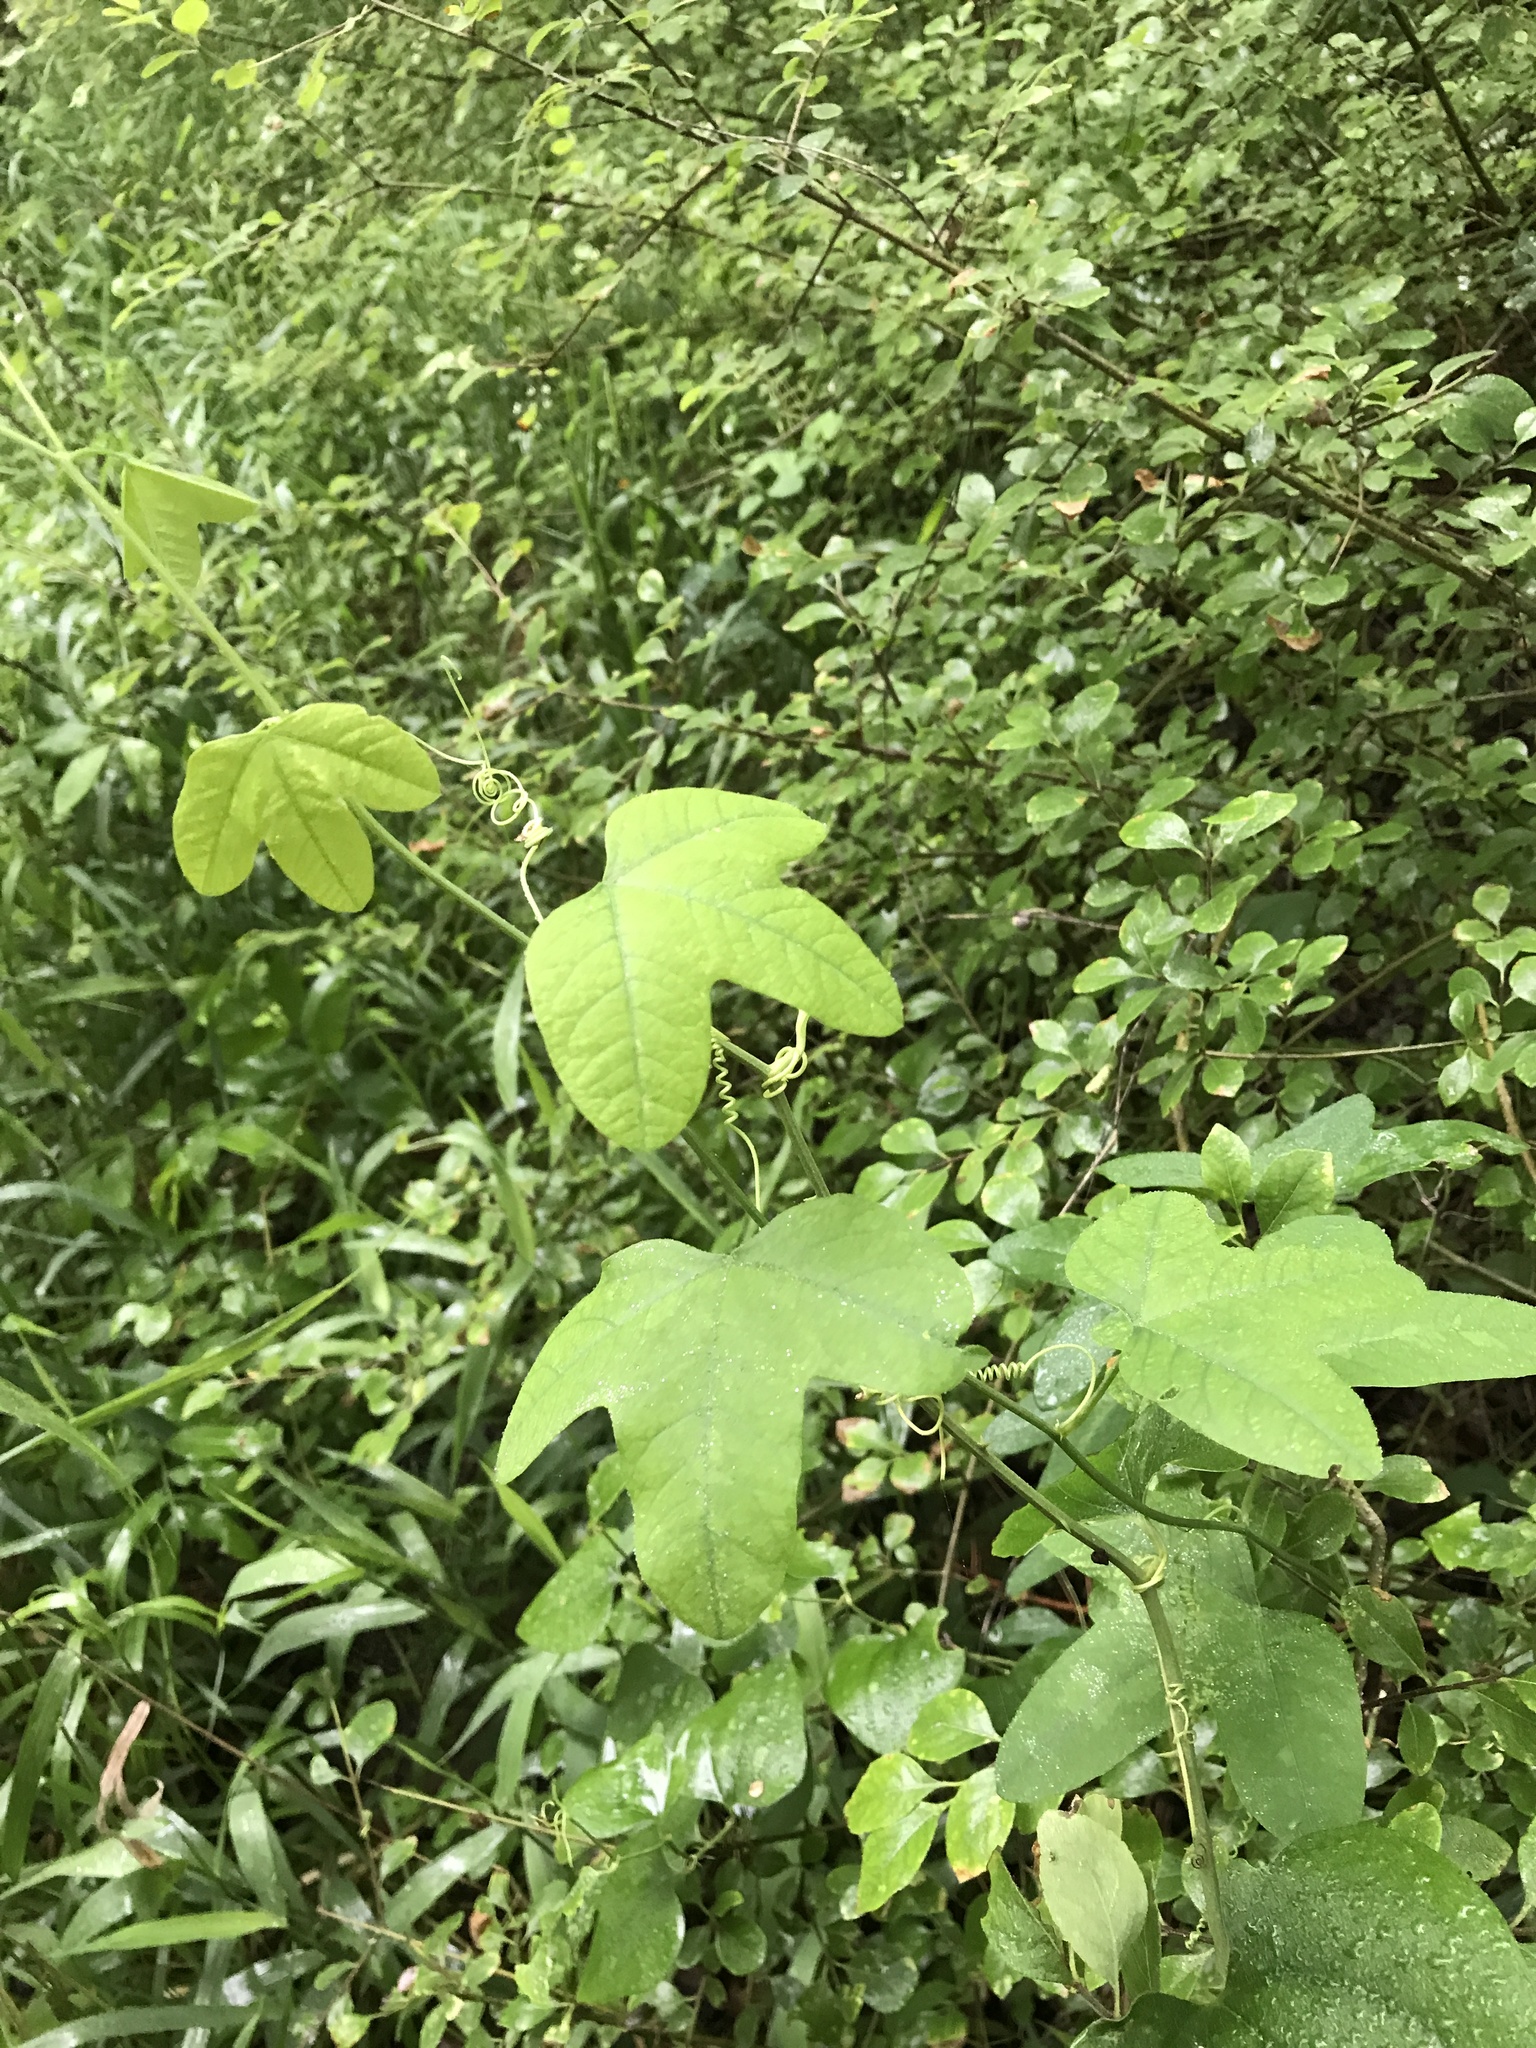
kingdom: Plantae
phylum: Tracheophyta
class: Magnoliopsida
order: Malpighiales
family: Passifloraceae
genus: Passiflora
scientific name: Passiflora lutea
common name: Yellow passionflower
